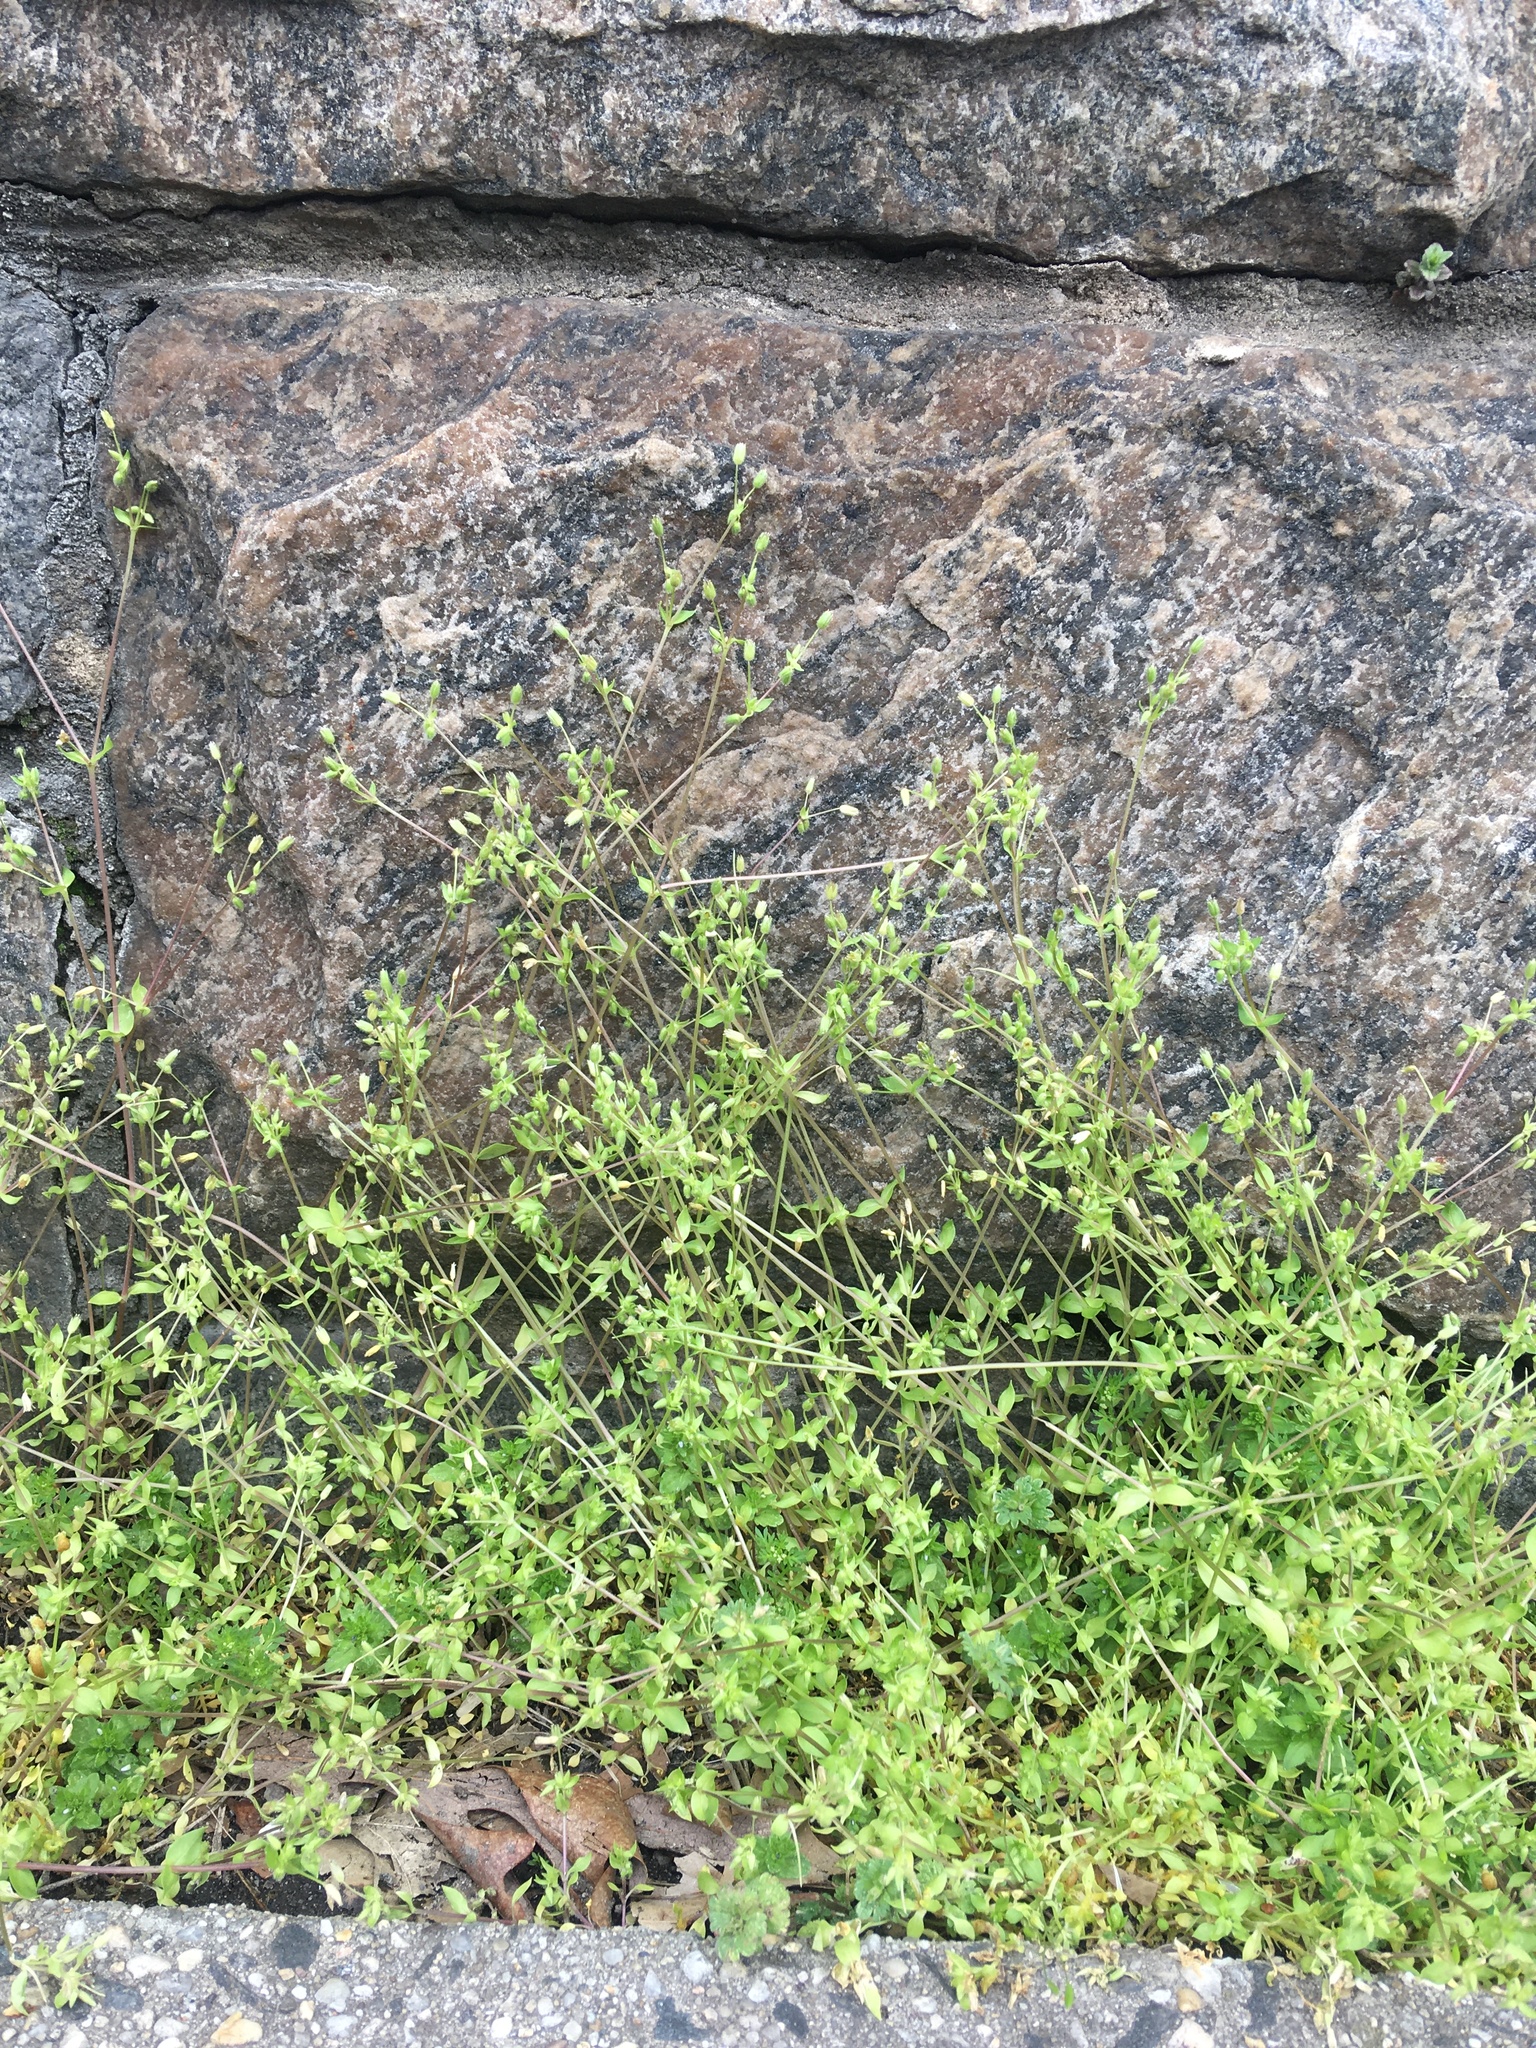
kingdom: Plantae
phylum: Tracheophyta
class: Magnoliopsida
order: Caryophyllales
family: Caryophyllaceae
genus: Stellaria
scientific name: Stellaria apetala
